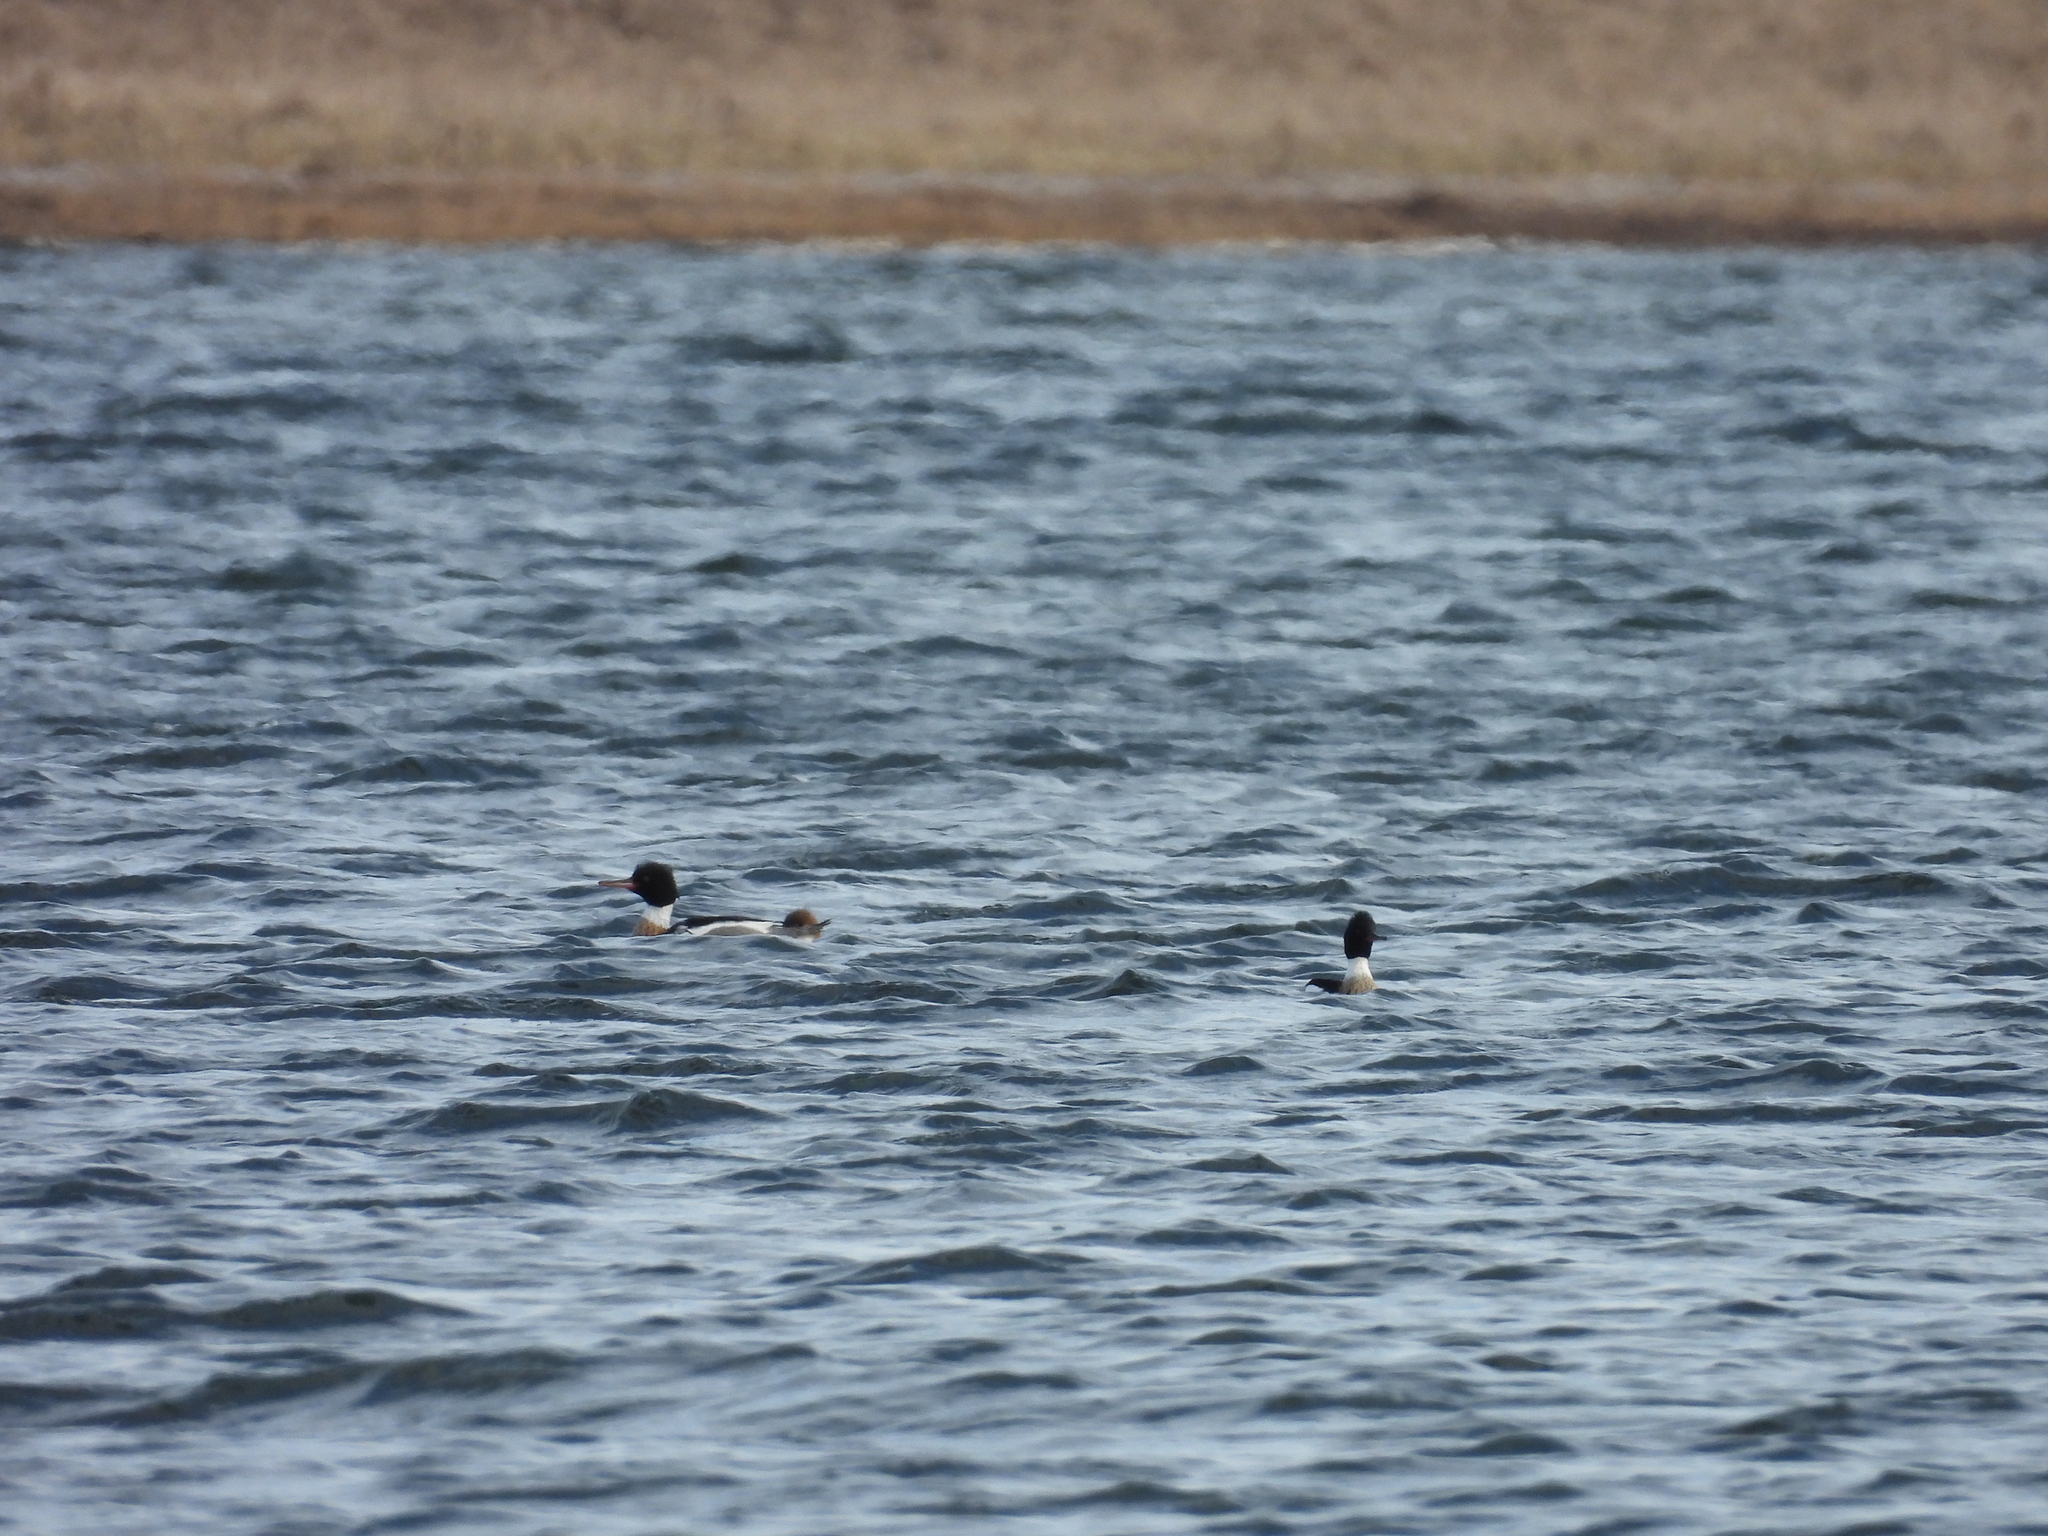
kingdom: Animalia
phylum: Chordata
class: Aves
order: Anseriformes
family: Anatidae
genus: Mergus
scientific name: Mergus serrator
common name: Red-breasted merganser
